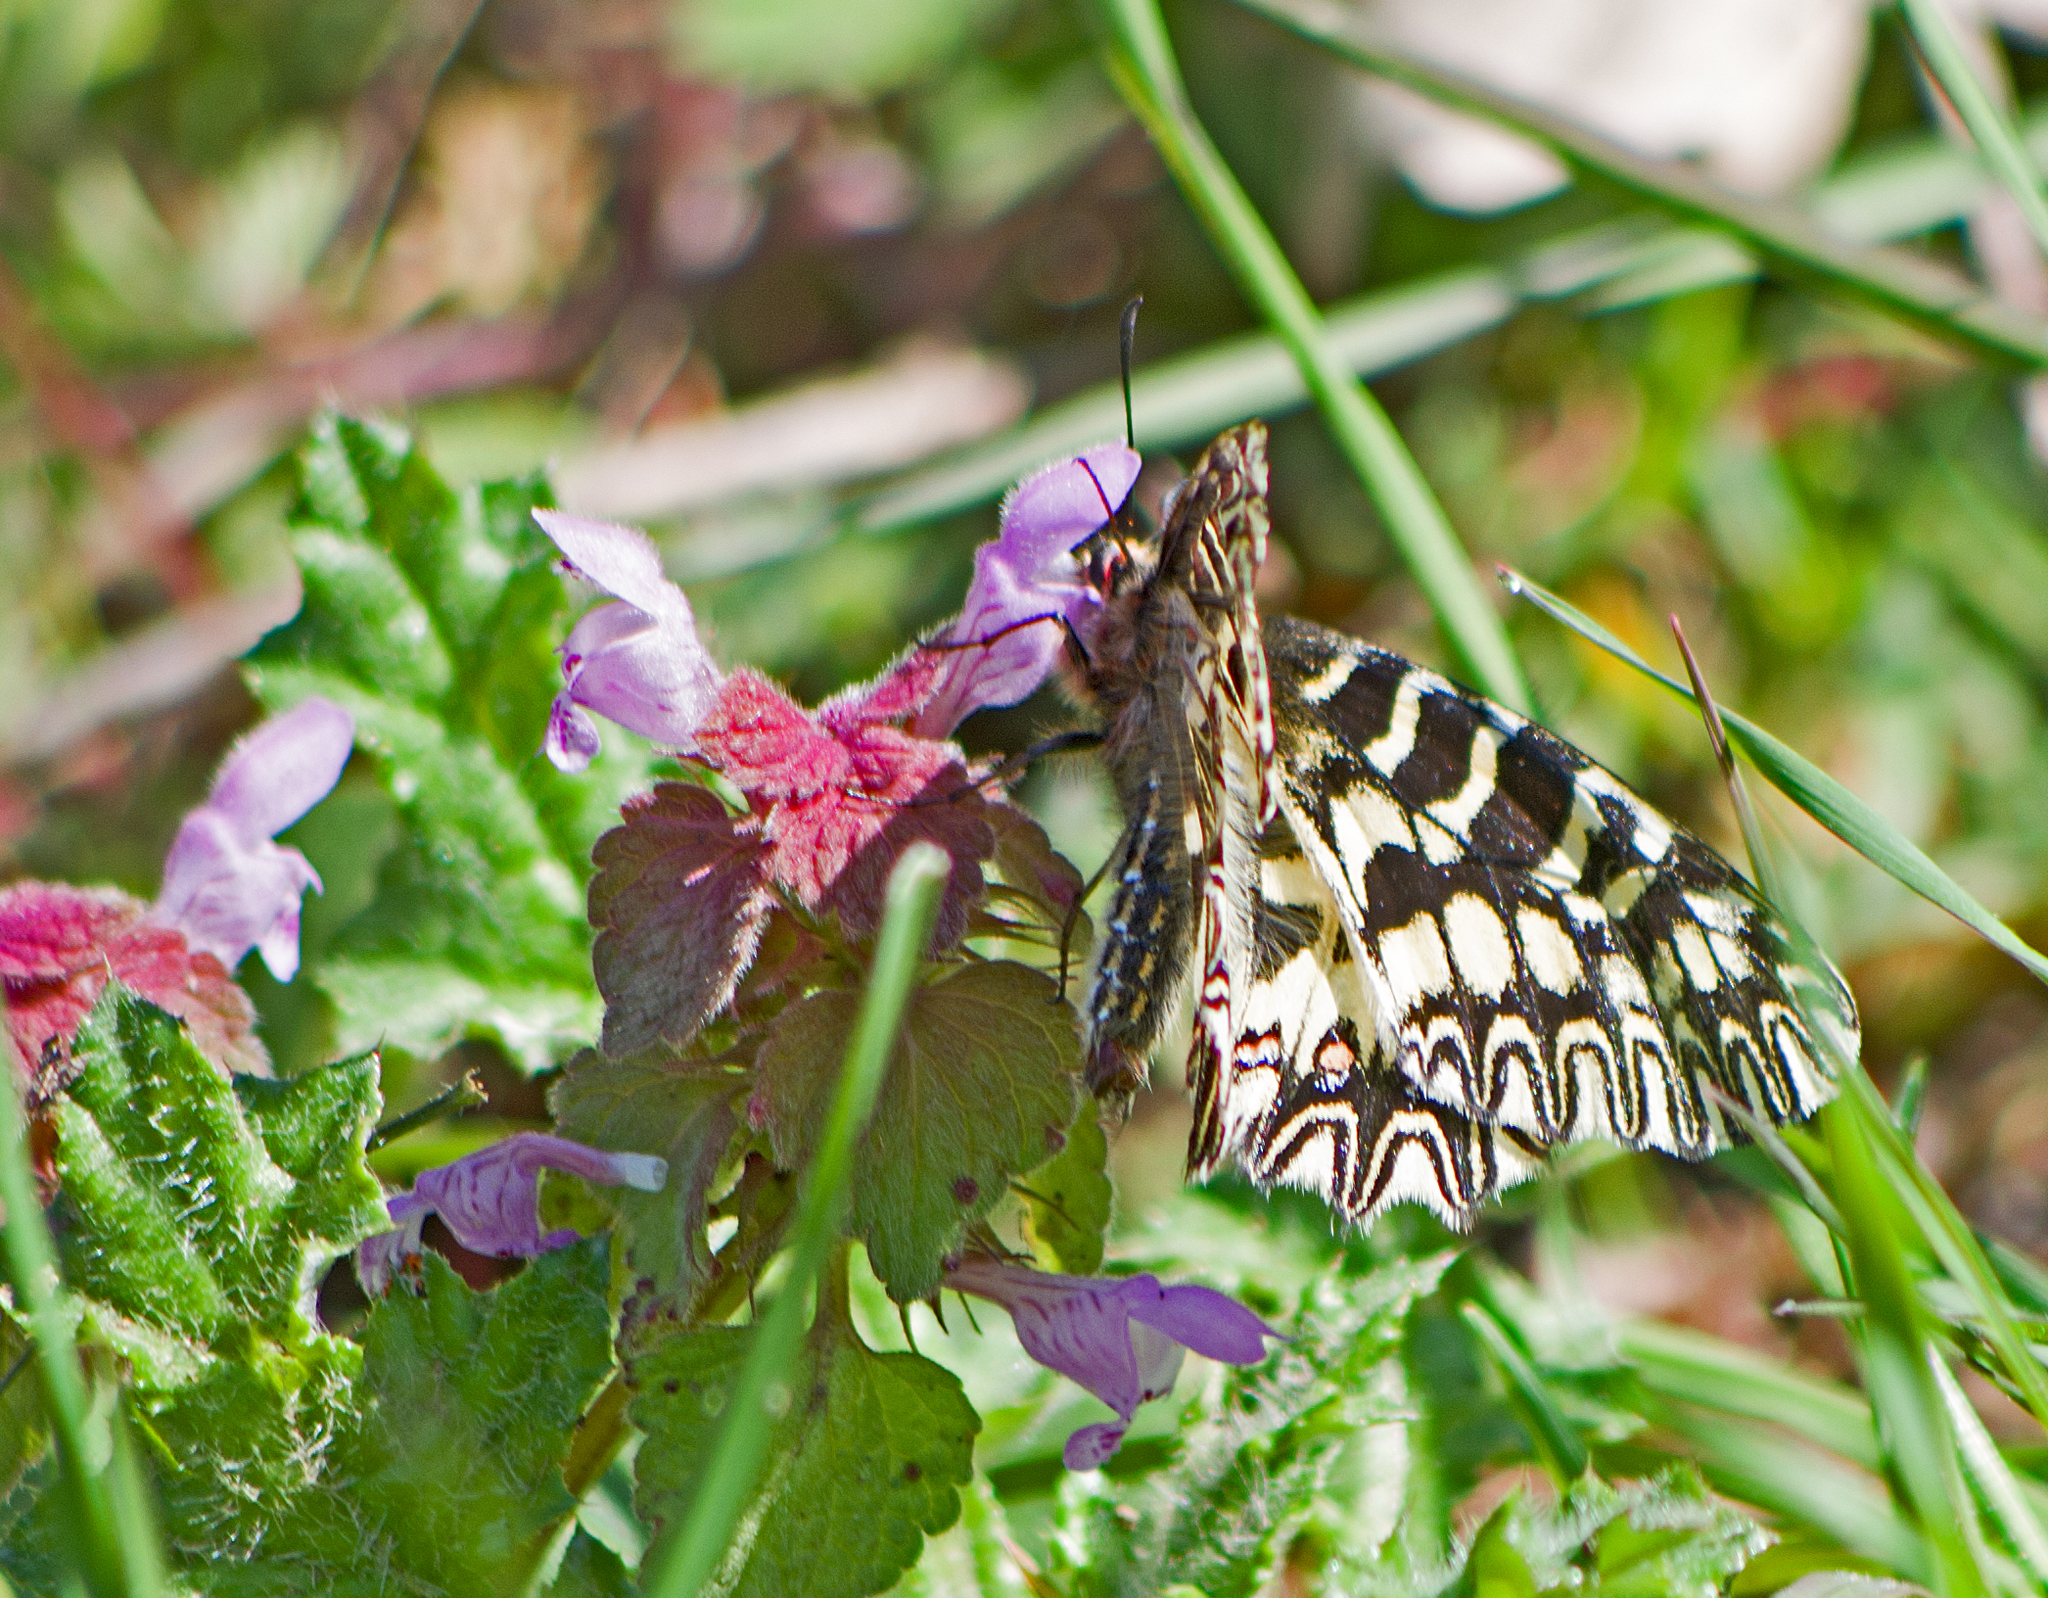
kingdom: Animalia
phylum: Arthropoda
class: Insecta
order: Lepidoptera
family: Papilionidae
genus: Zerynthia
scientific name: Zerynthia polyxena
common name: Southern festoon
